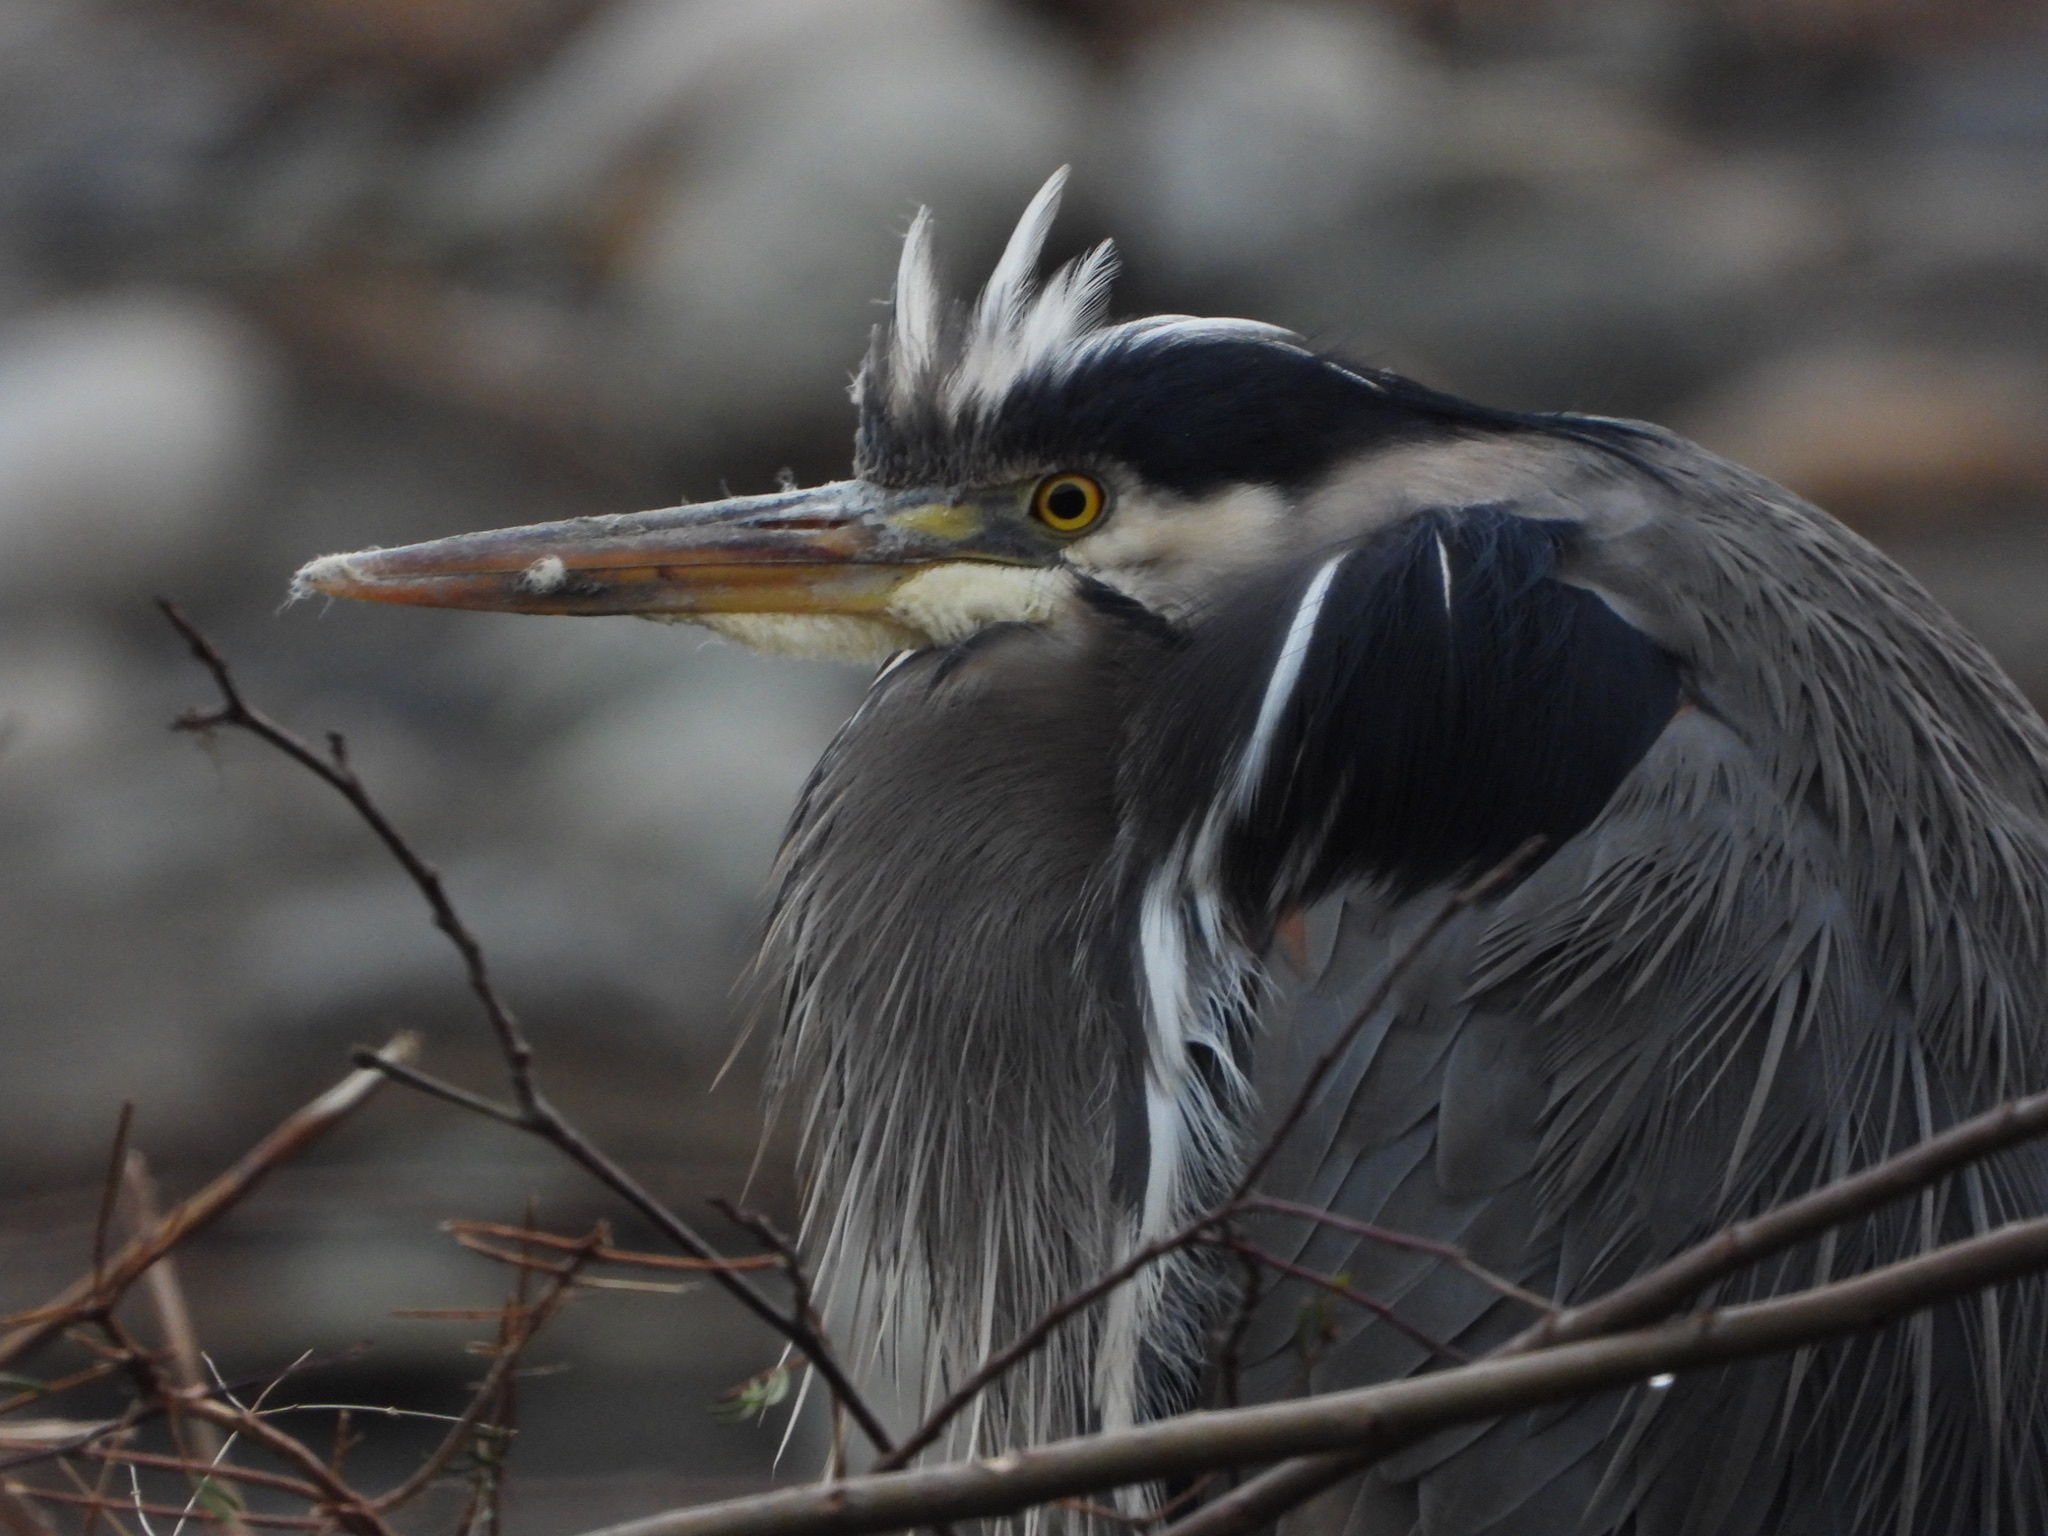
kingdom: Animalia
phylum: Chordata
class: Aves
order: Pelecaniformes
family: Ardeidae
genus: Ardea
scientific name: Ardea herodias
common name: Great blue heron
